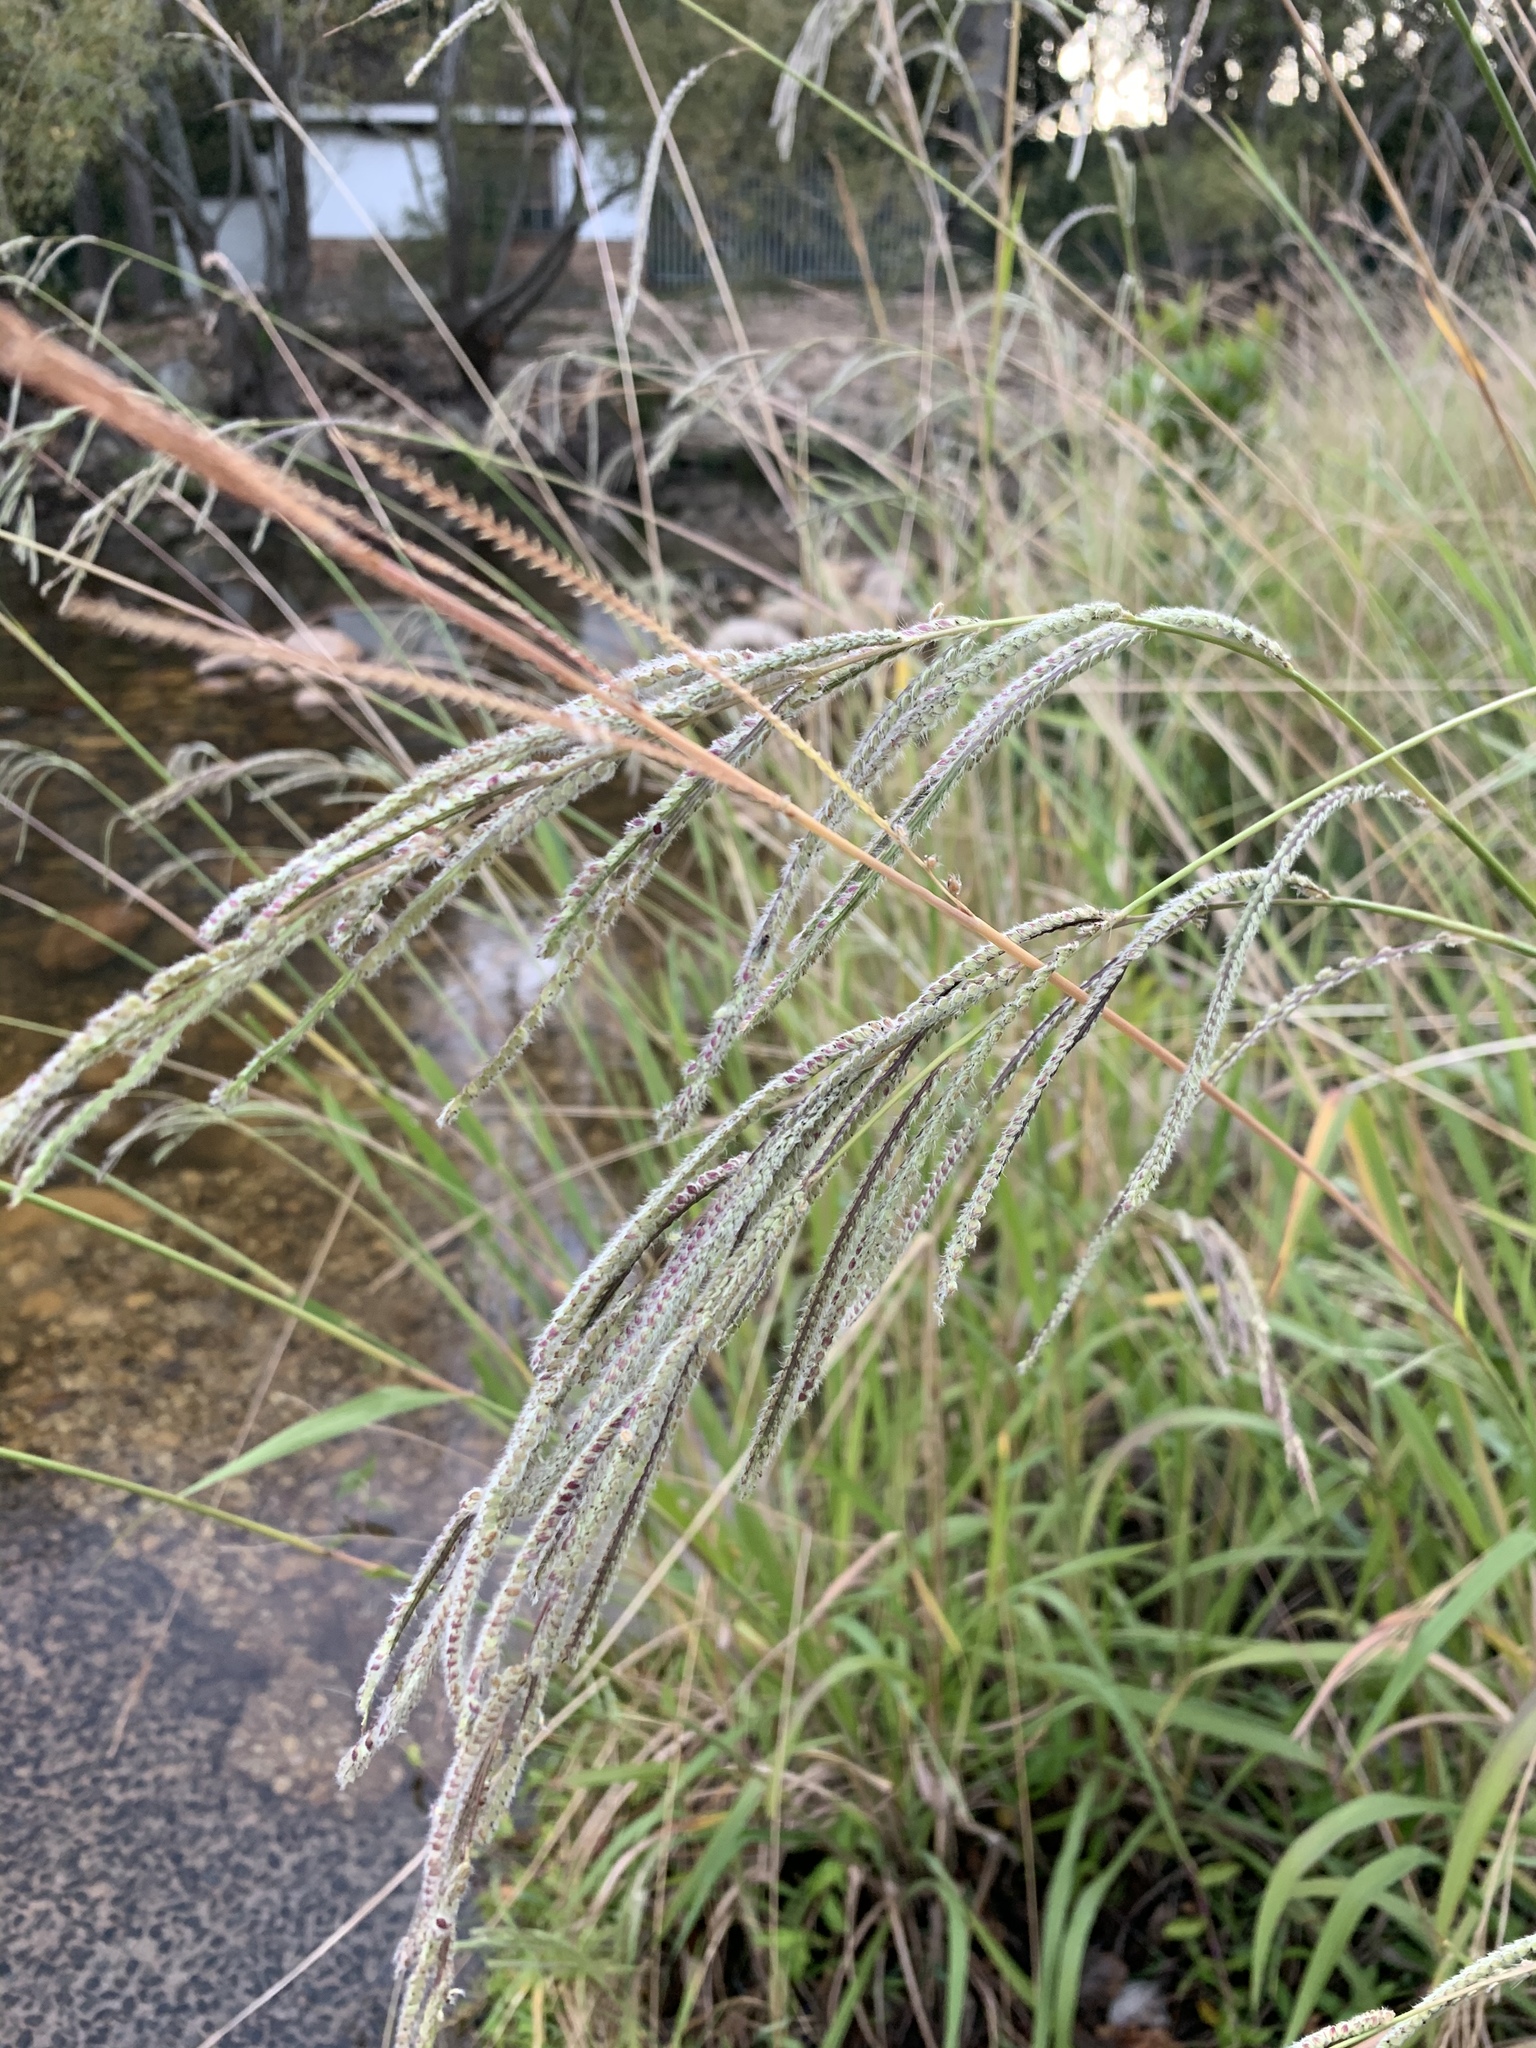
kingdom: Plantae
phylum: Tracheophyta
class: Liliopsida
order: Poales
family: Poaceae
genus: Paspalum
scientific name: Paspalum urvillei
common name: Vasey's grass
